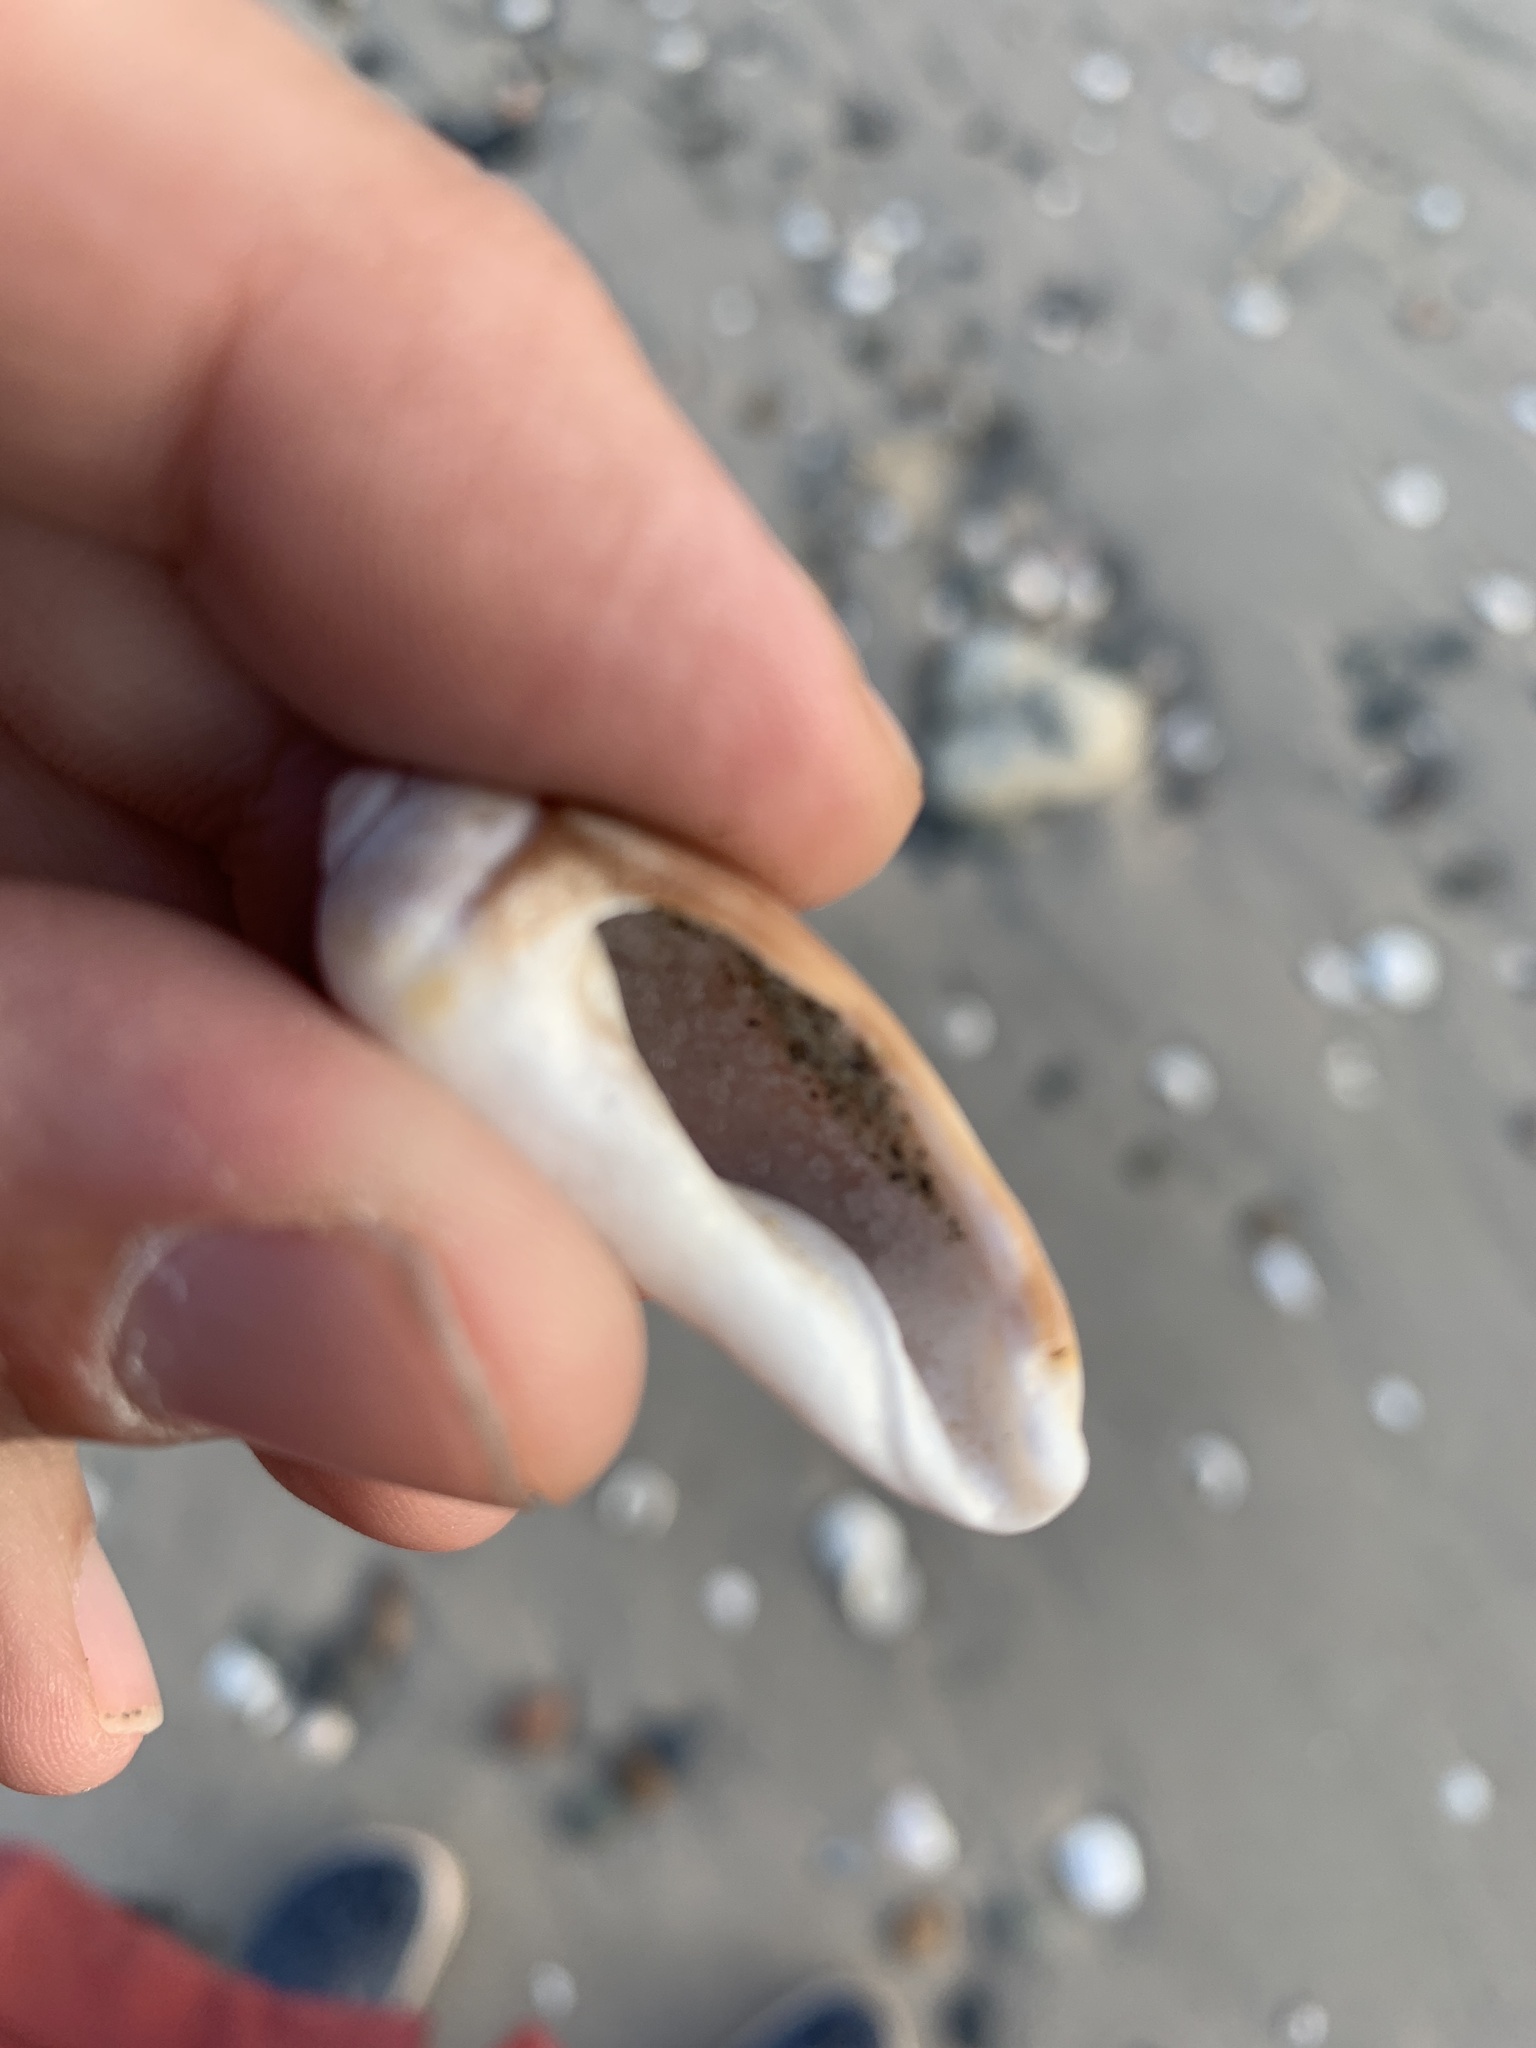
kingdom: Animalia
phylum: Mollusca
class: Gastropoda
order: Neogastropoda
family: Olividae
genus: Olivancillaria
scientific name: Olivancillaria carcellesi
